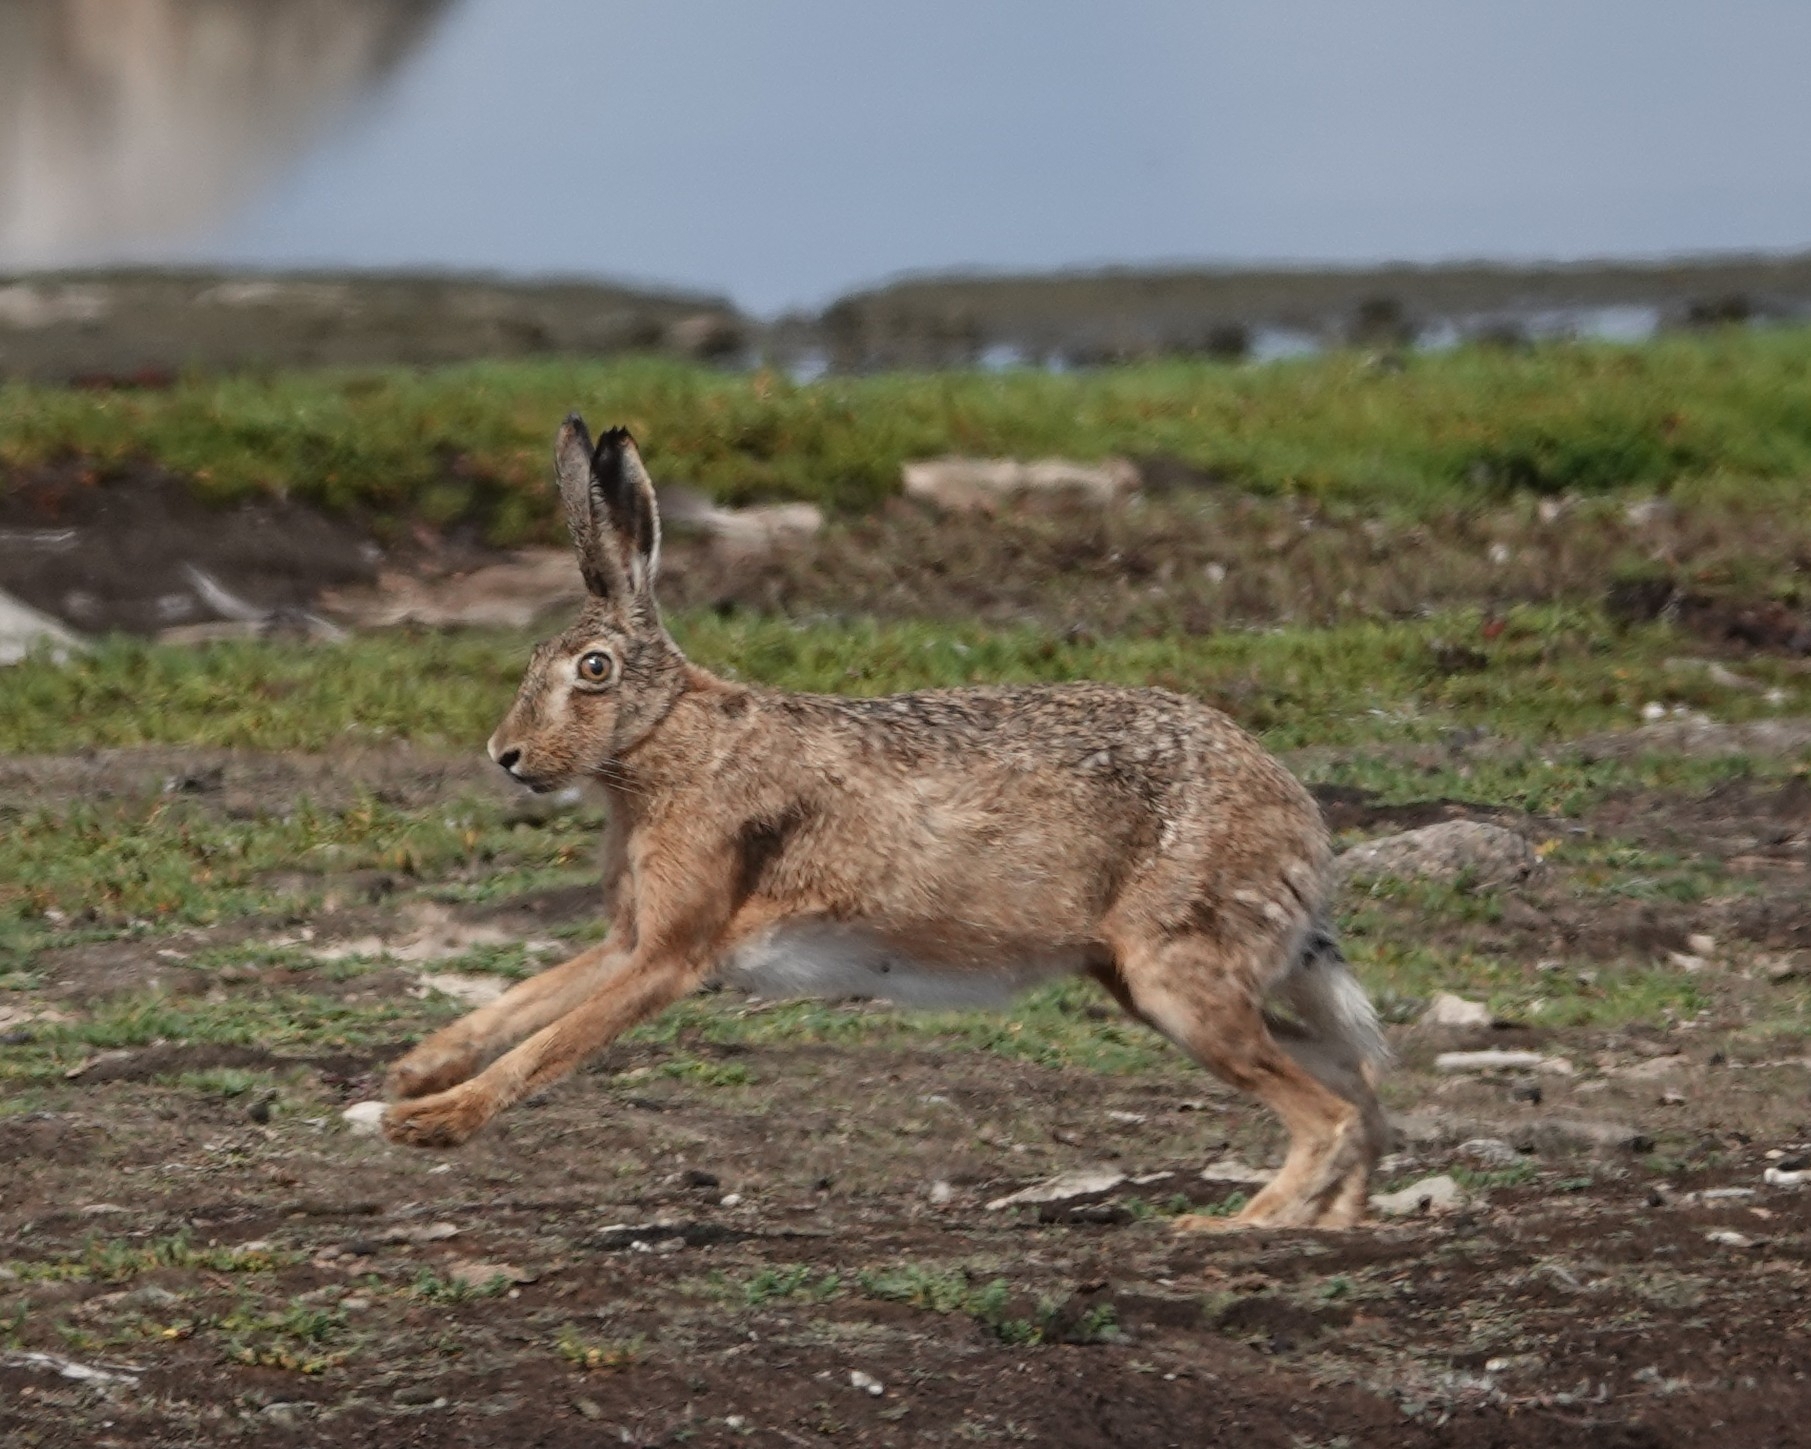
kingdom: Animalia
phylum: Chordata
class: Mammalia
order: Lagomorpha
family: Leporidae
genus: Lepus
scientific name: Lepus europaeus
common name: European hare
